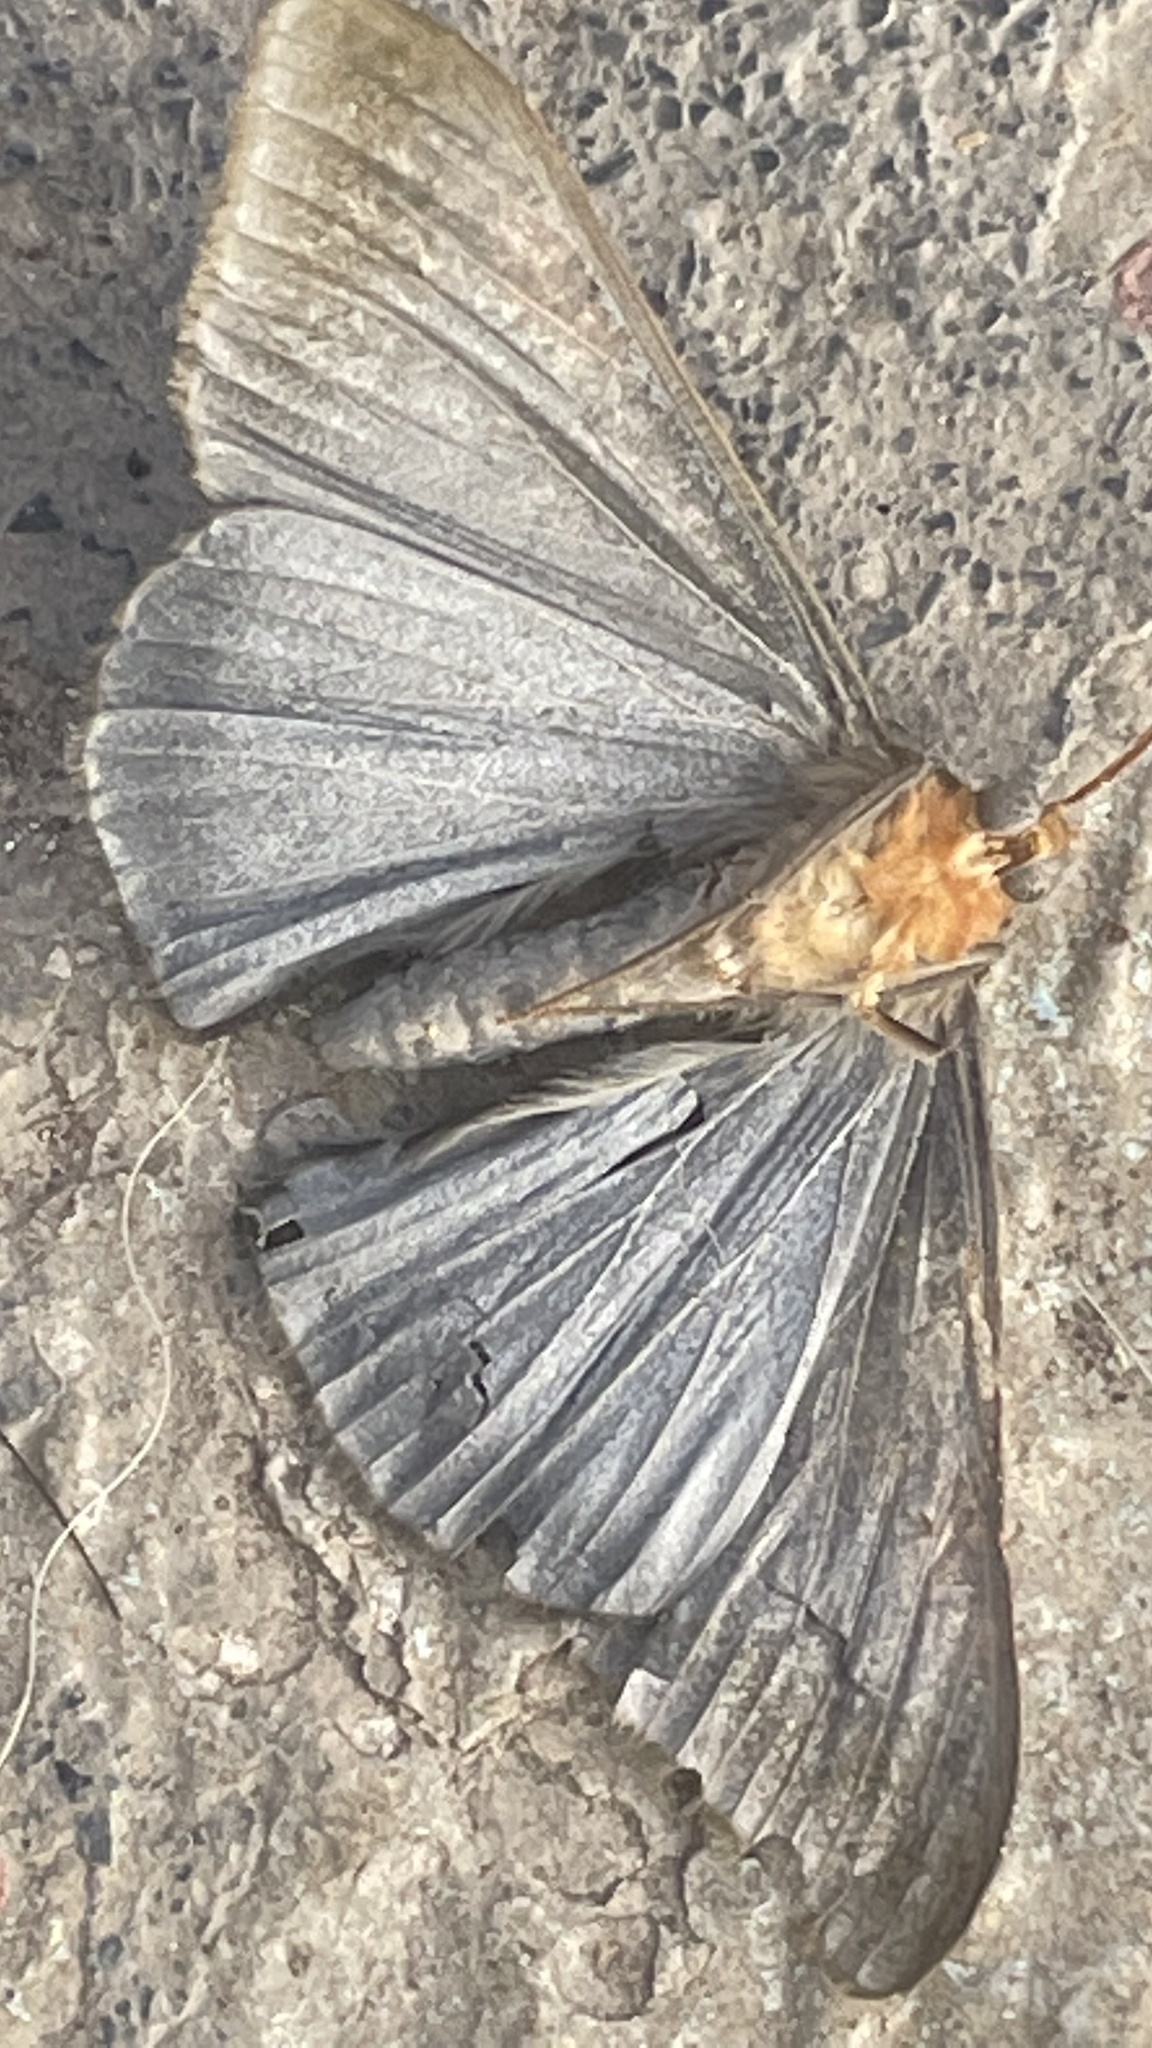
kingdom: Animalia
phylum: Arthropoda
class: Insecta
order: Lepidoptera
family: Geometridae
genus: Sphacelodes
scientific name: Sphacelodes vulneraria
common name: Looper moth
